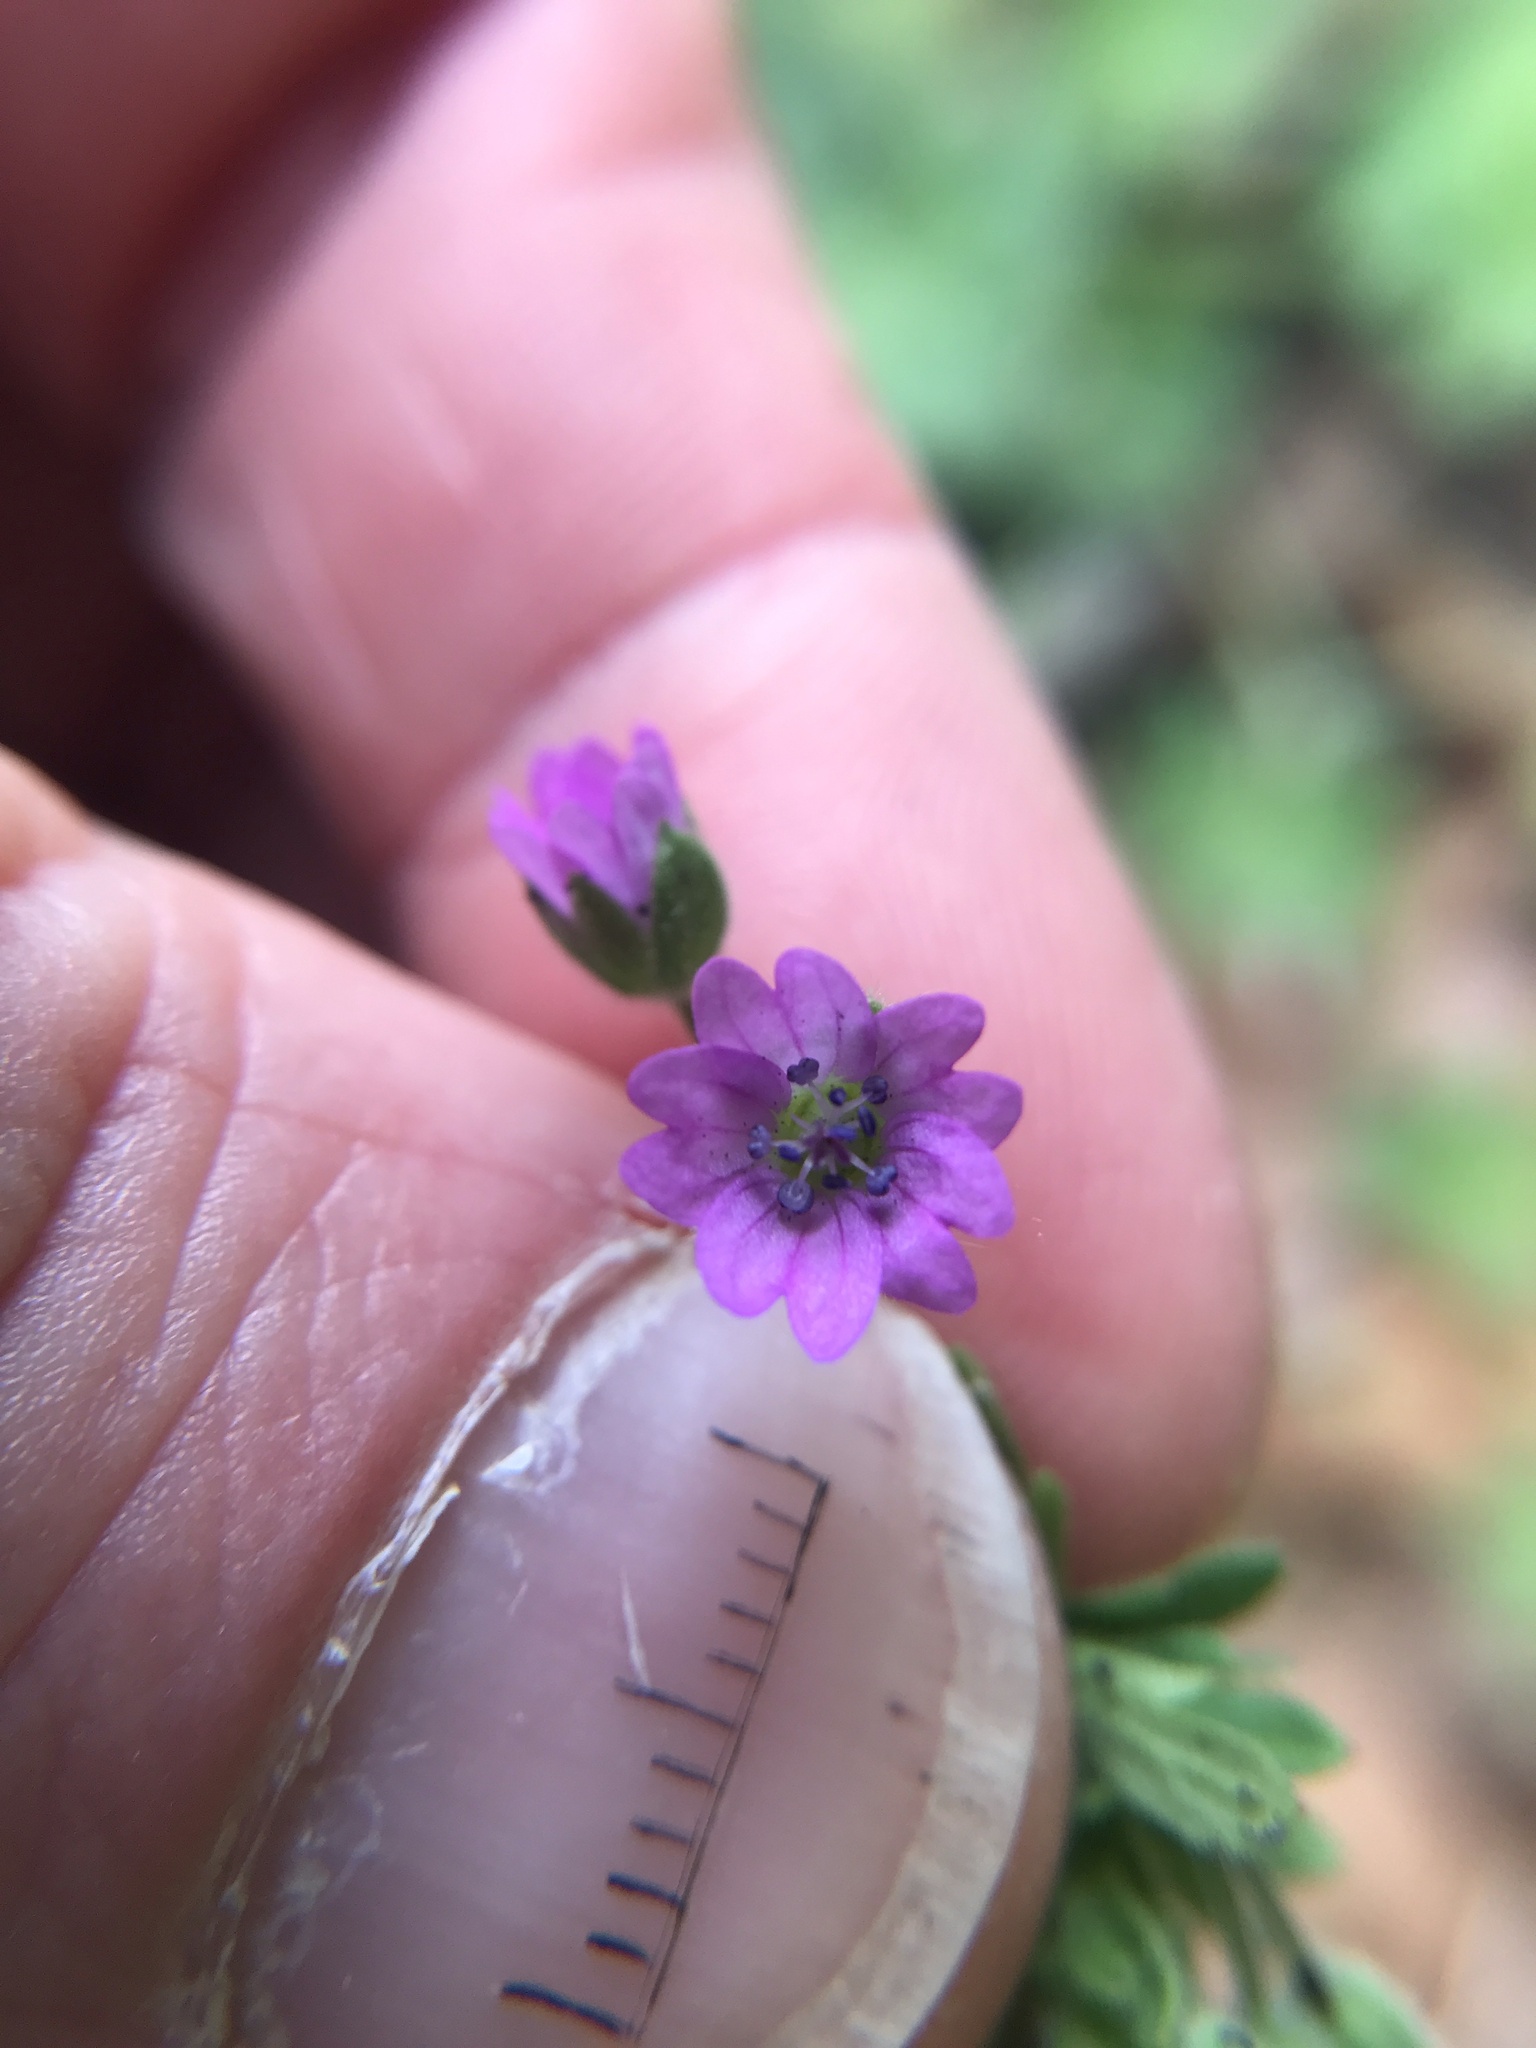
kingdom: Plantae
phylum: Tracheophyta
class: Magnoliopsida
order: Geraniales
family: Geraniaceae
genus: Geranium
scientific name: Geranium molle
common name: Dove's-foot crane's-bill
